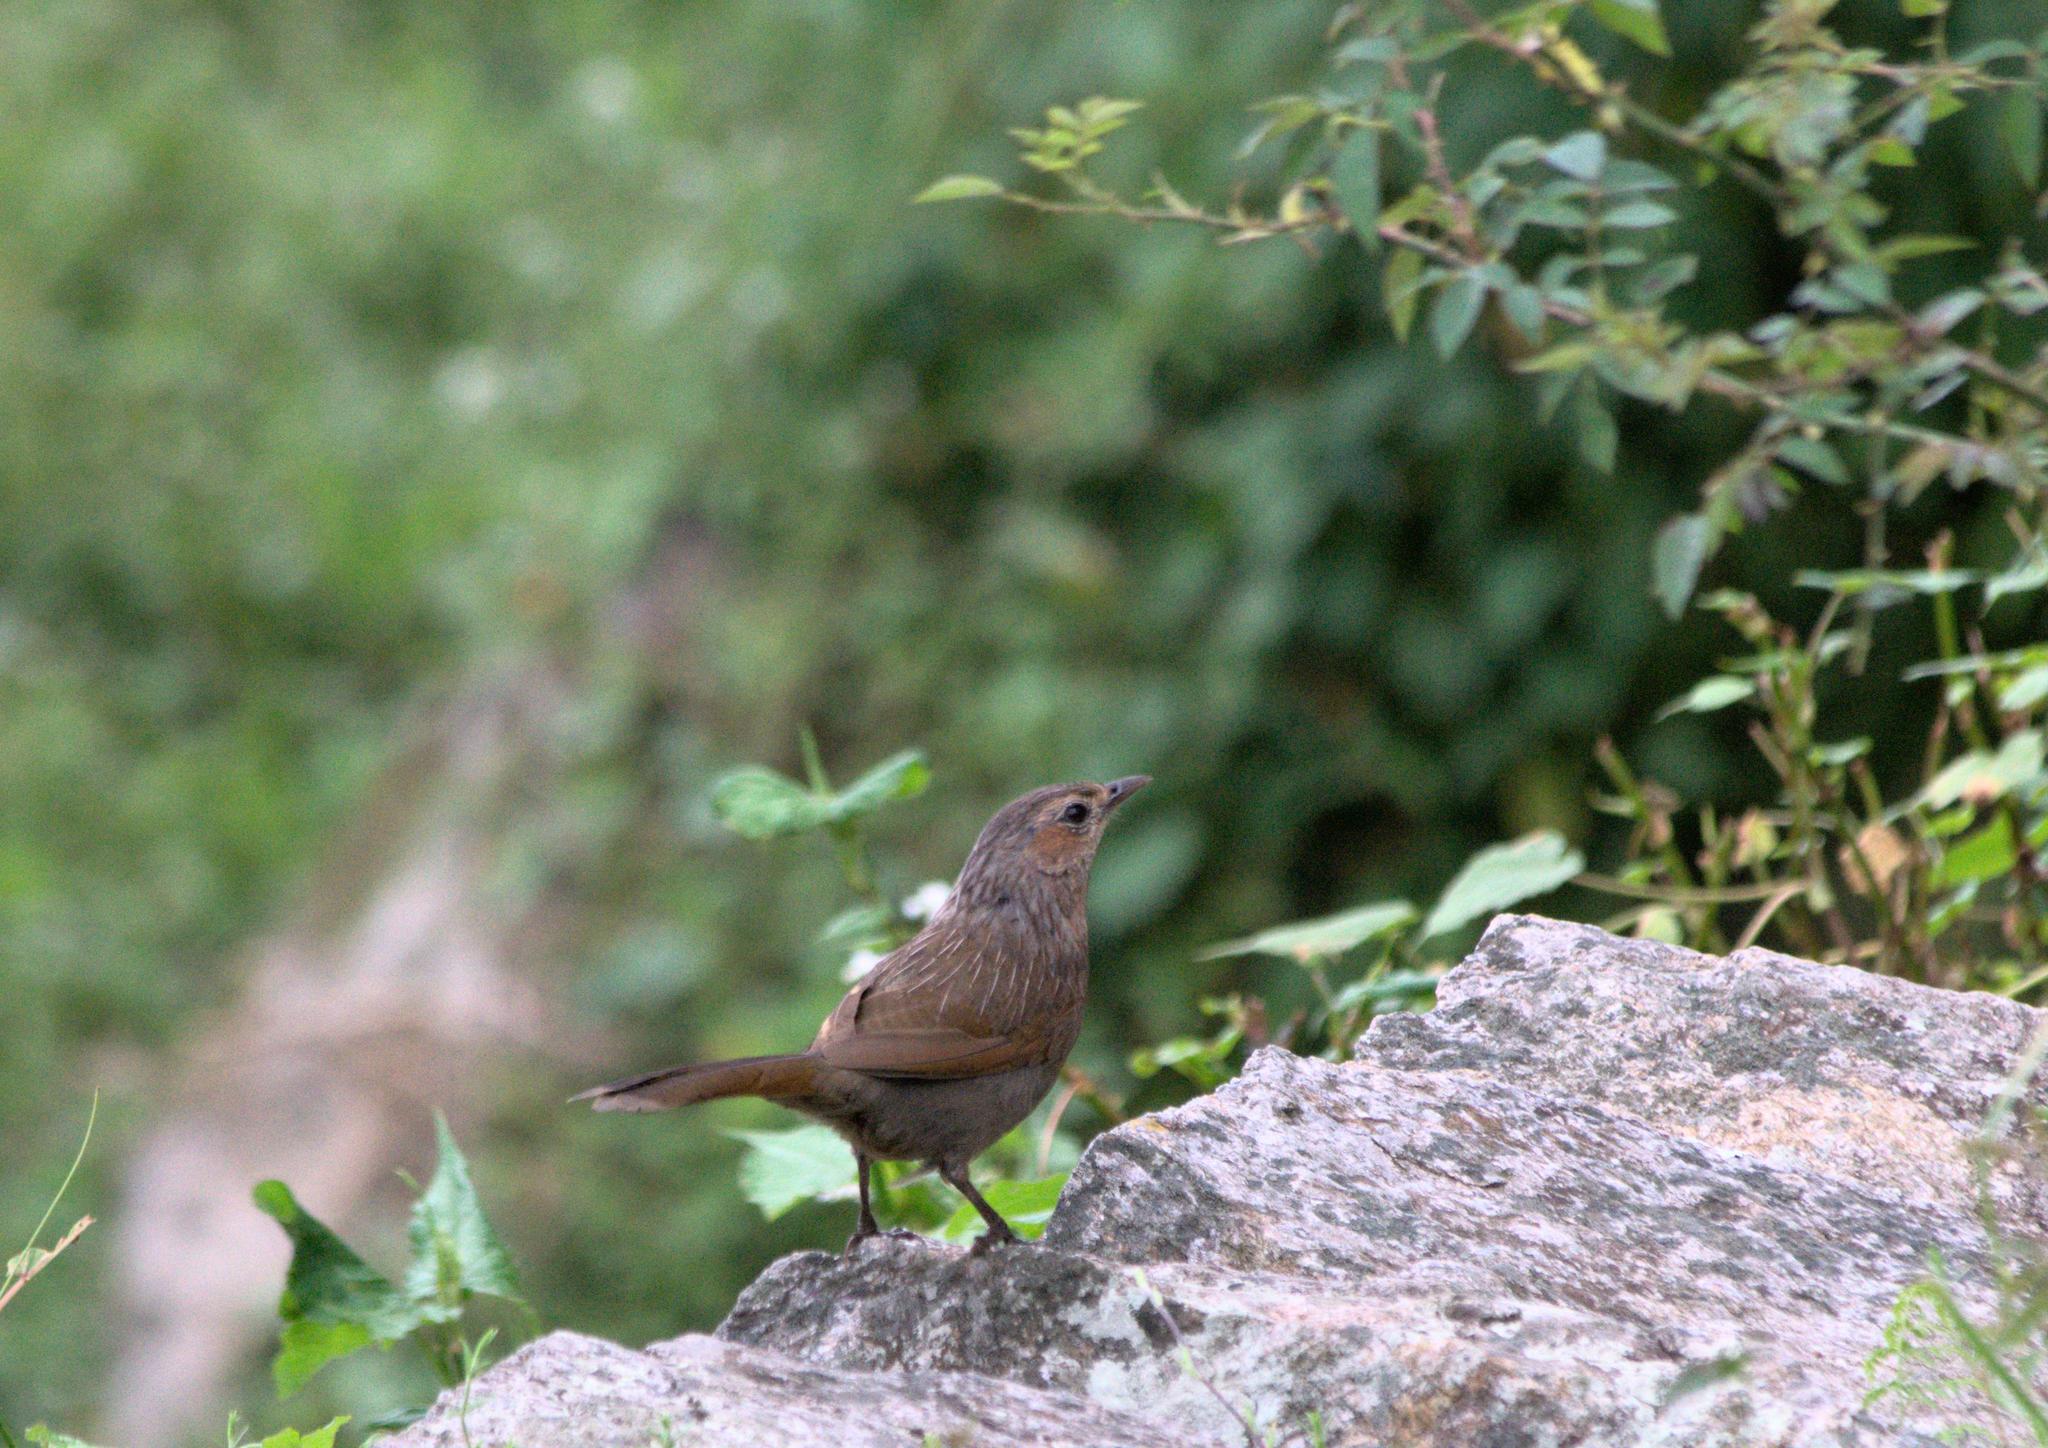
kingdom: Animalia
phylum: Chordata
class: Aves
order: Passeriformes
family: Leiothrichidae
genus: Trochalopteron
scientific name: Trochalopteron lineatum
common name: Streaked laughingthrush
